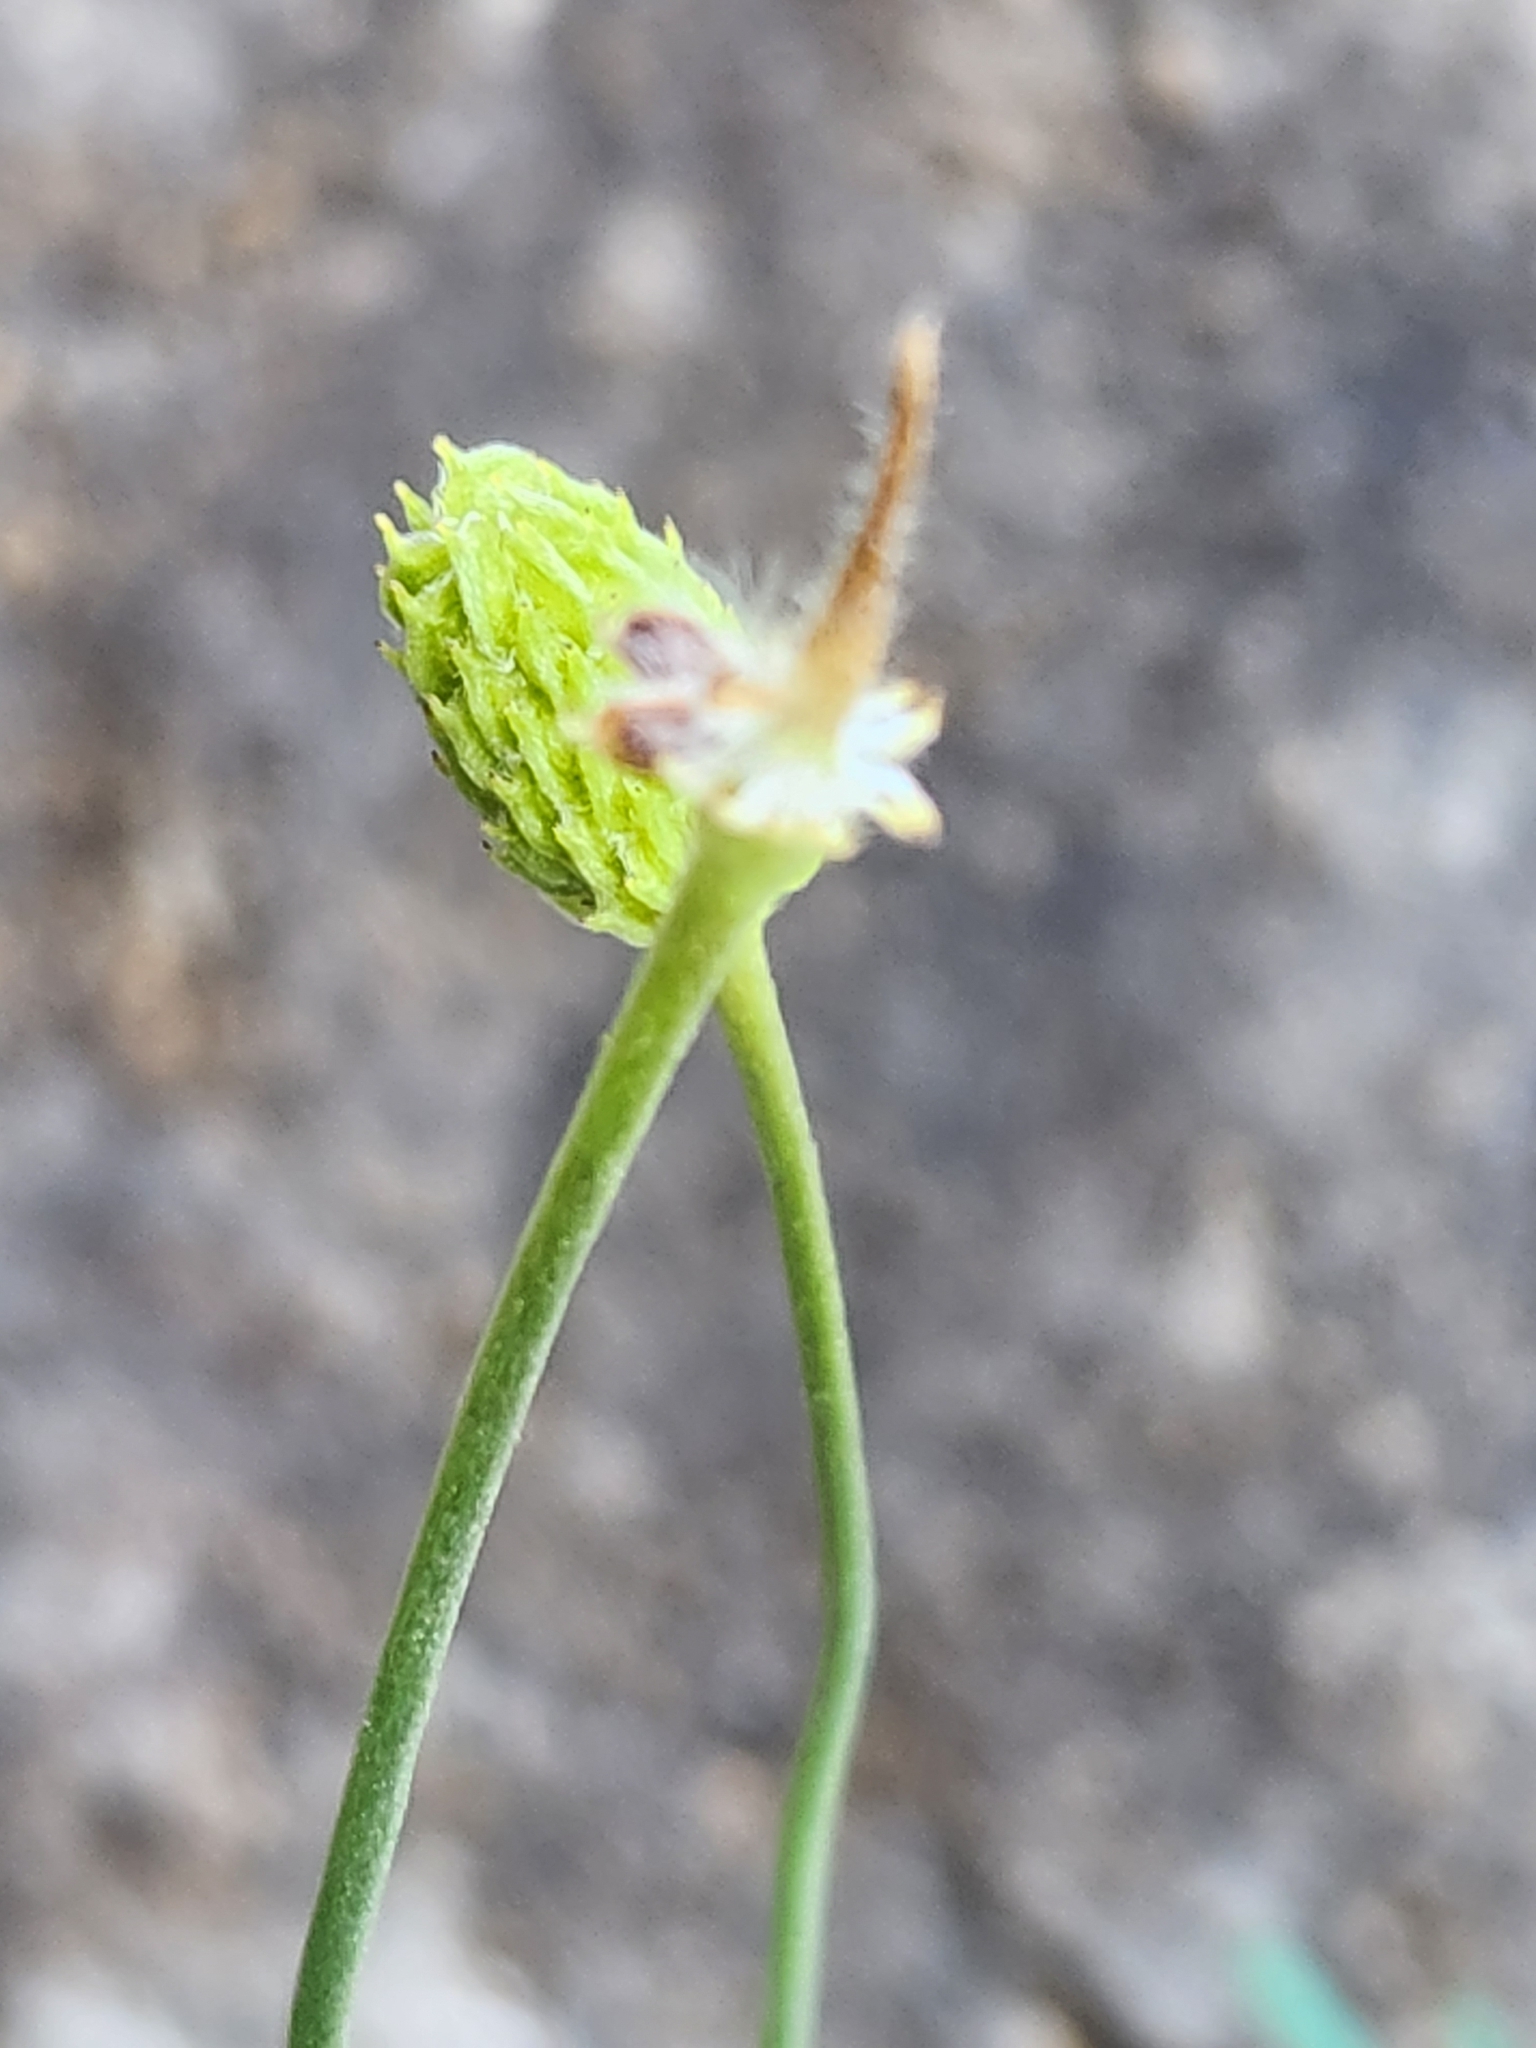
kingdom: Plantae
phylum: Tracheophyta
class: Magnoliopsida
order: Ranunculales
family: Ranunculaceae
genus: Anemone
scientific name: Anemone edwardsiana
